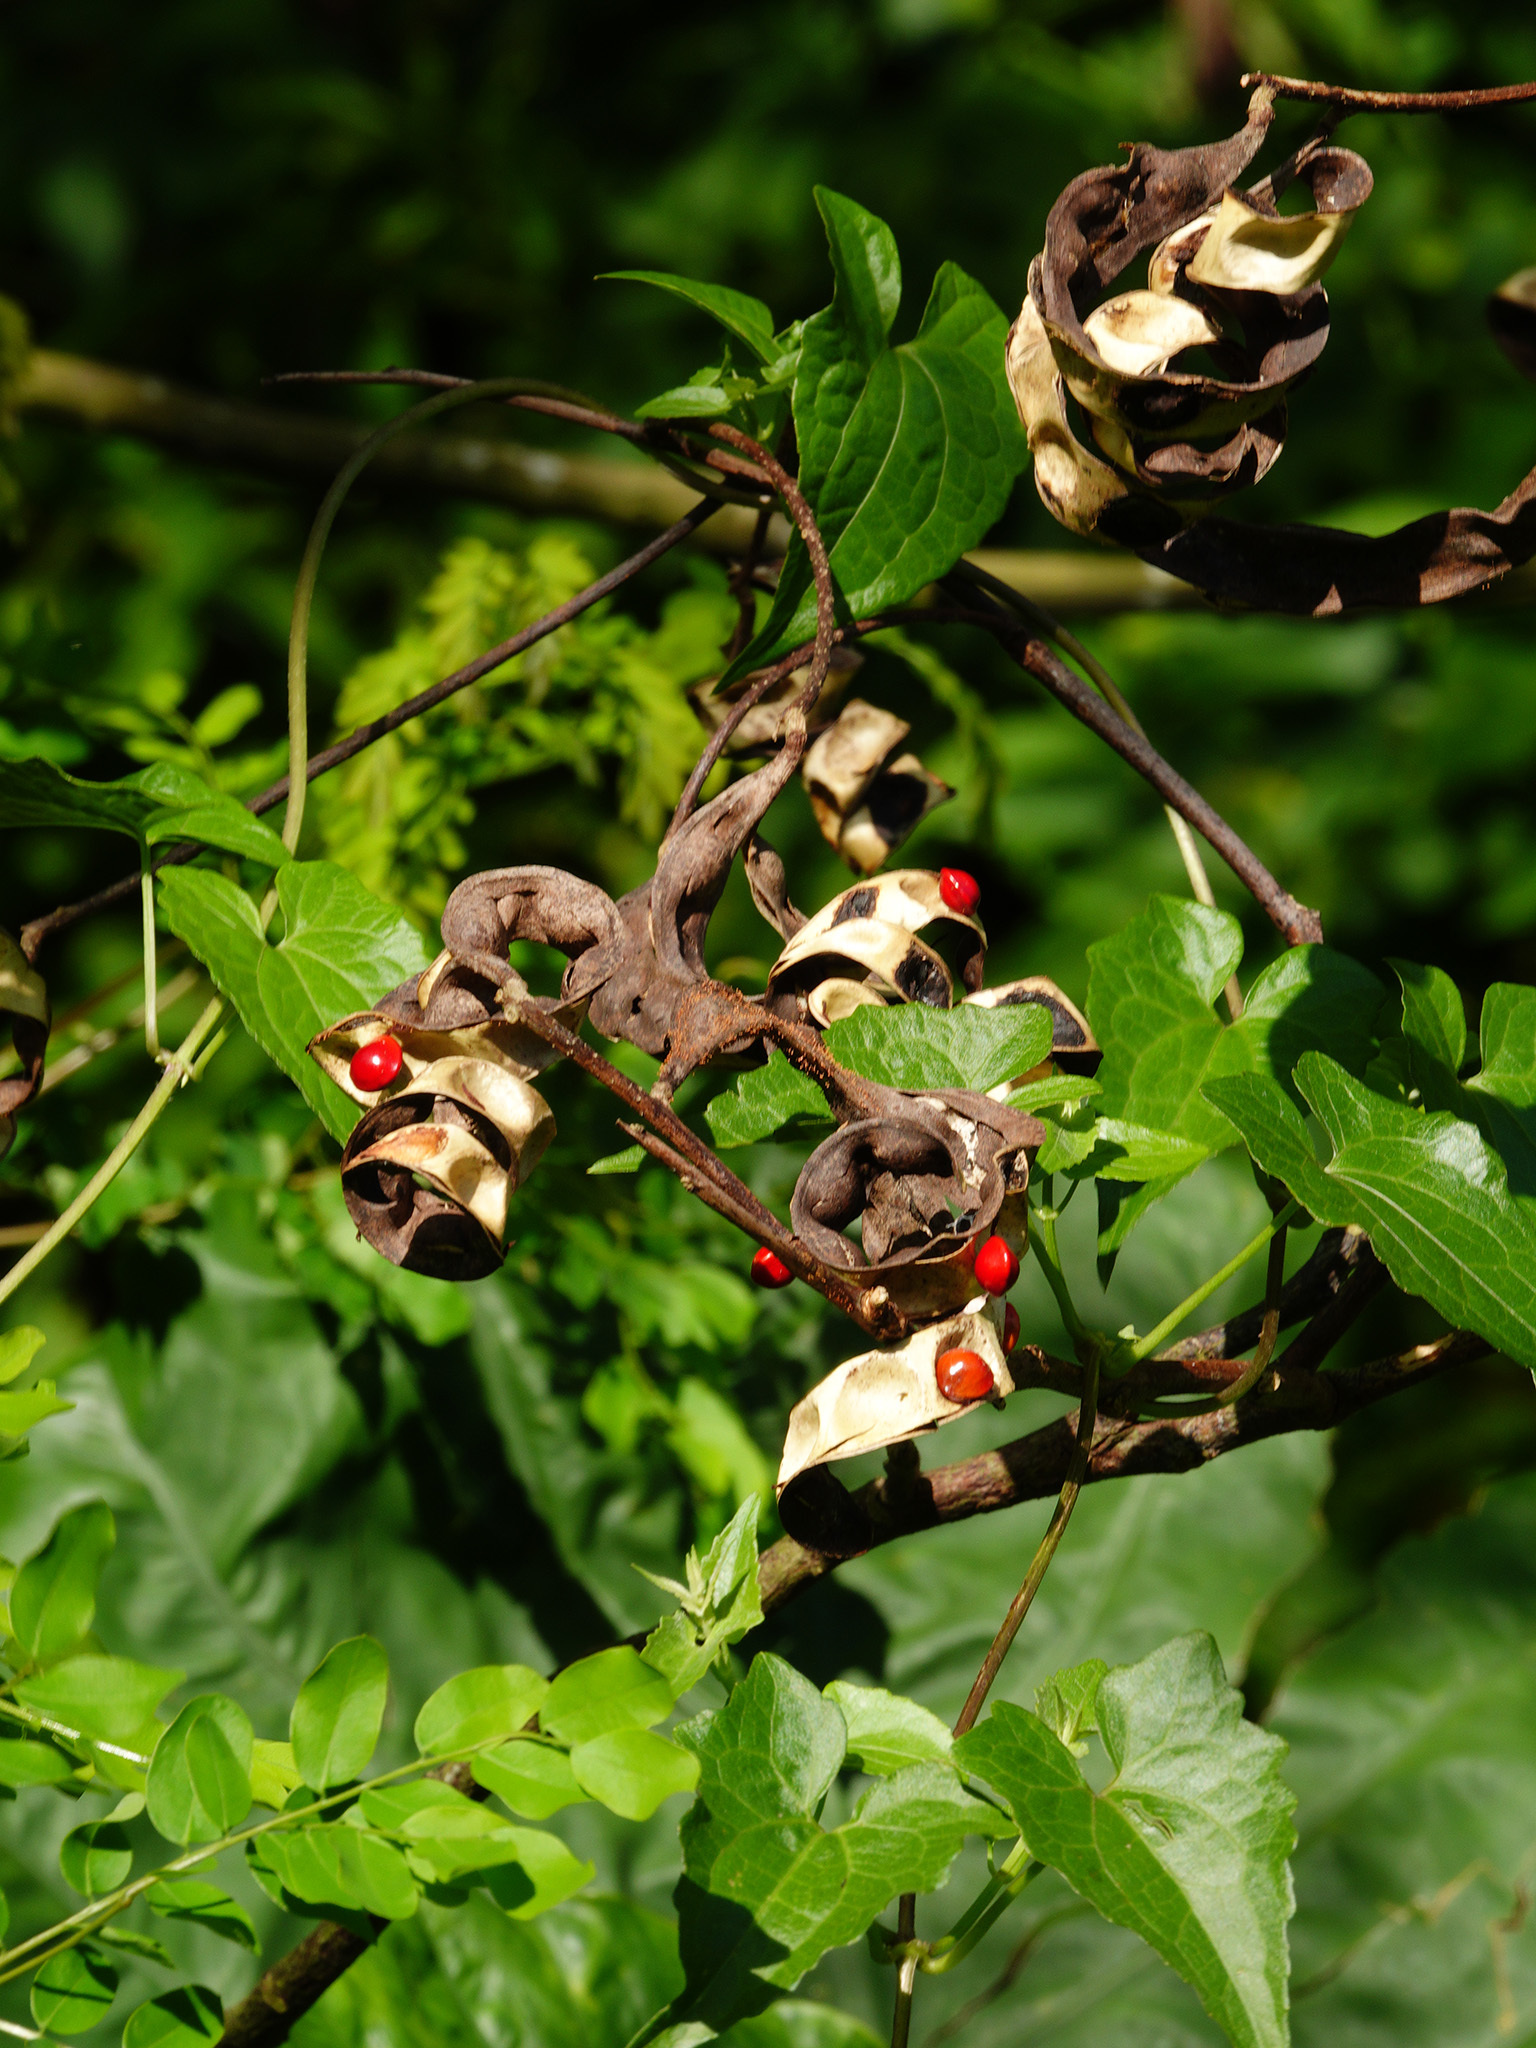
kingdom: Plantae
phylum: Tracheophyta
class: Magnoliopsida
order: Fabales
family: Fabaceae
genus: Adenanthera
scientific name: Adenanthera pavonina
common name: Red beadtree
